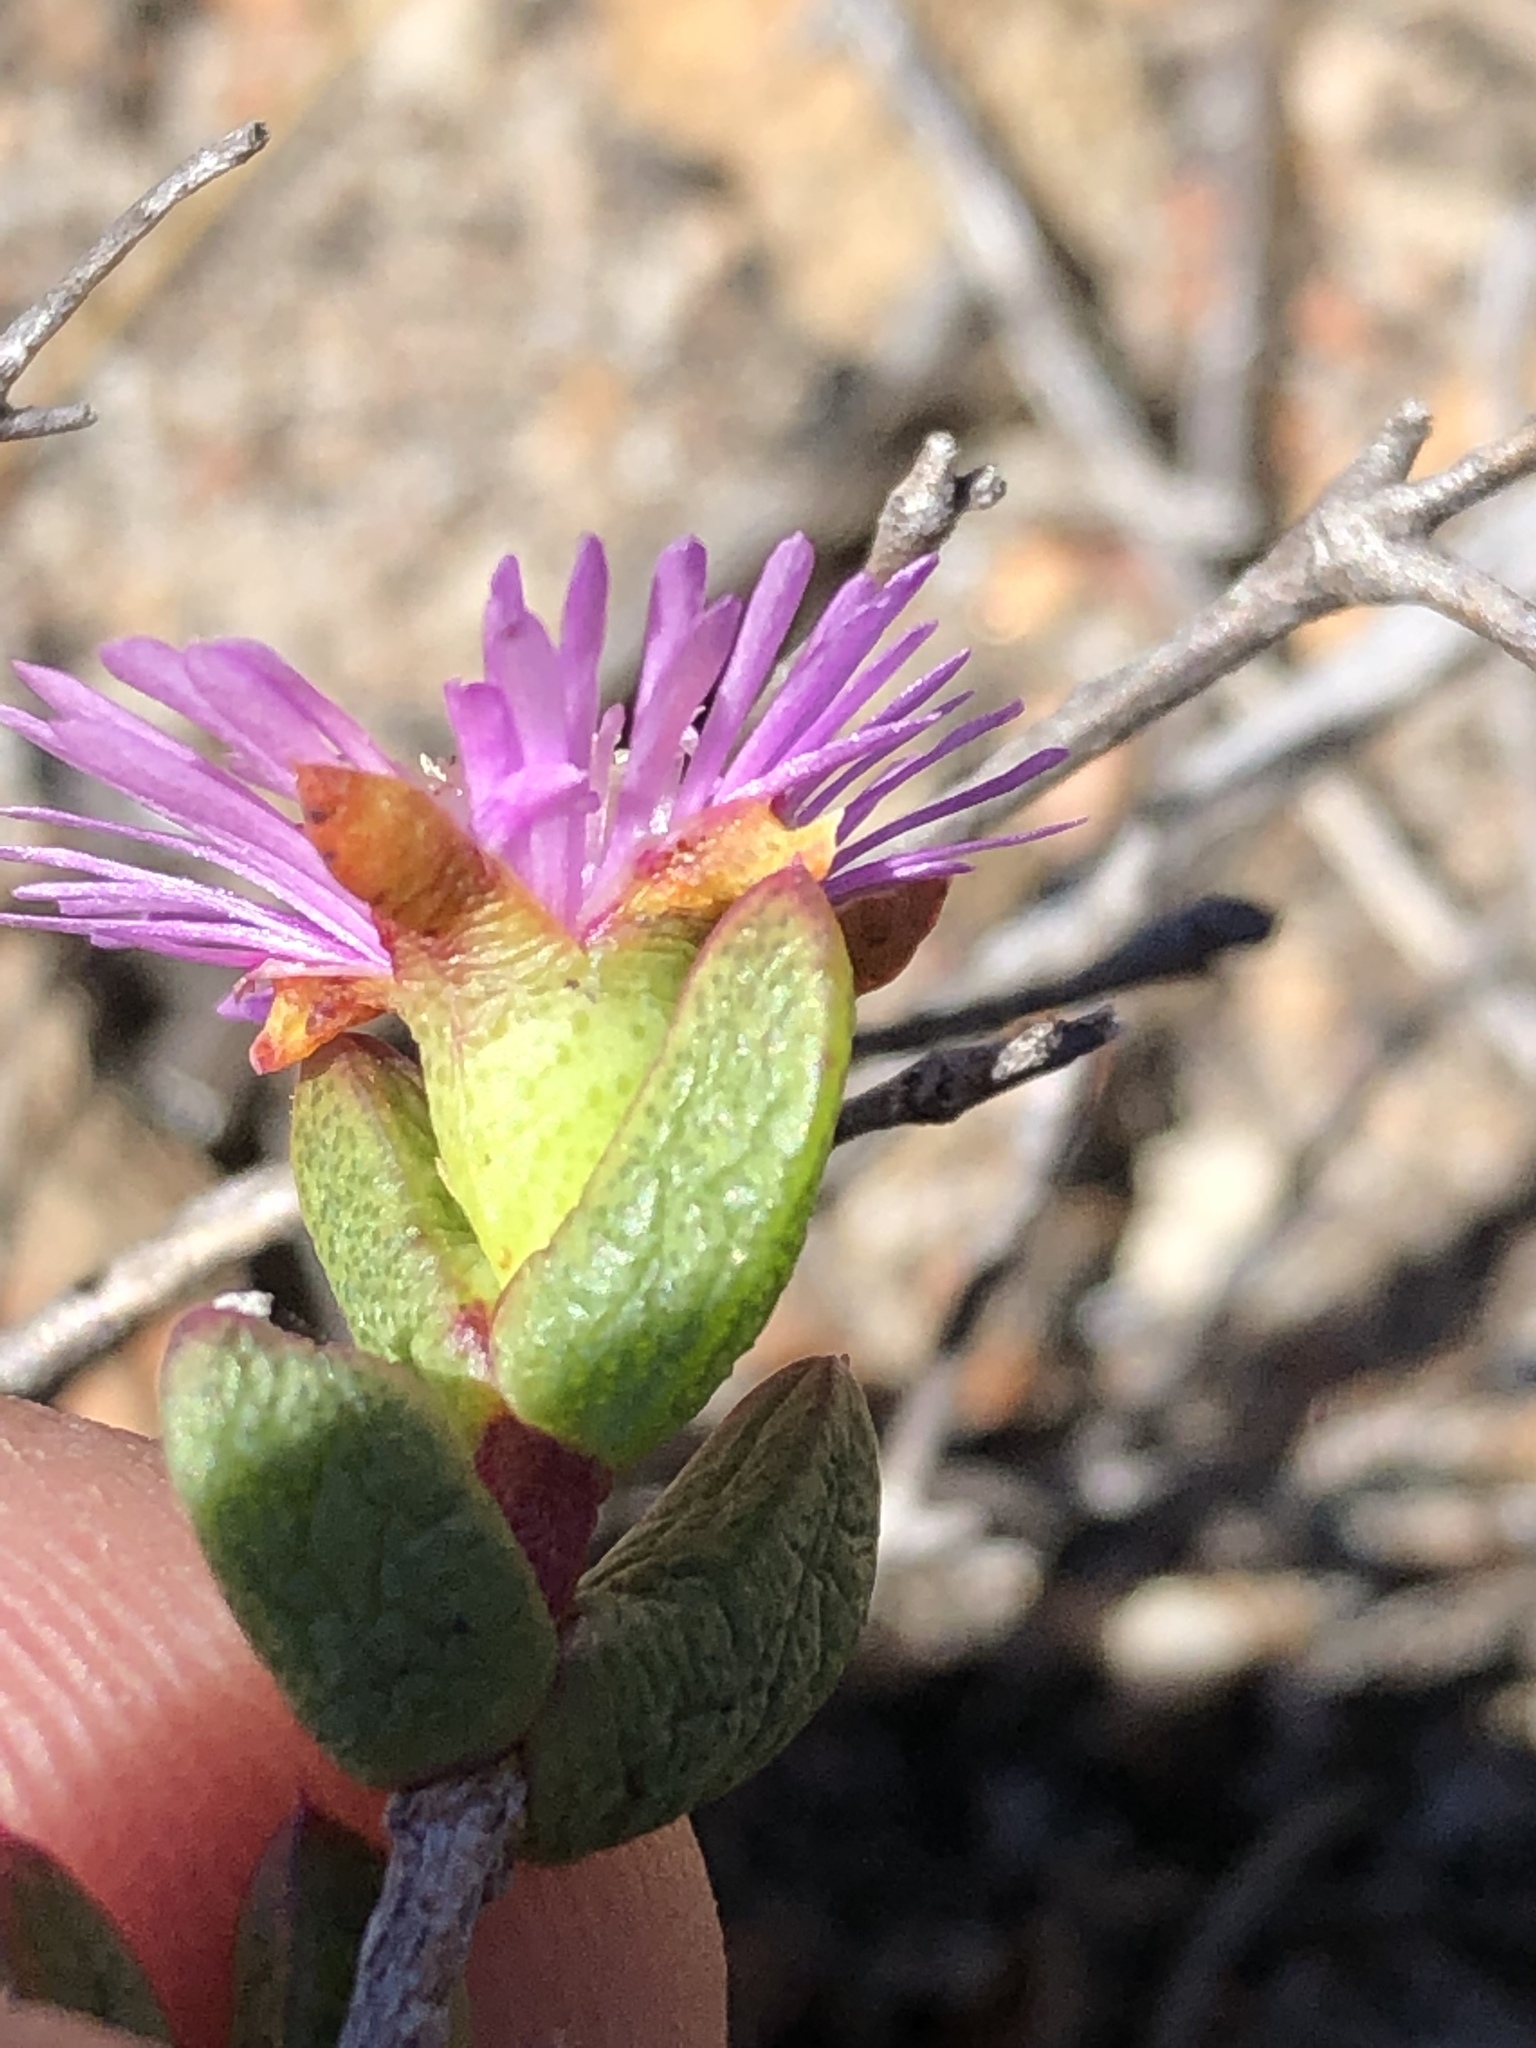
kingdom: Plantae
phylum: Tracheophyta
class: Magnoliopsida
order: Caryophyllales
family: Aizoaceae
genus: Ruschia
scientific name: Ruschia virgata
